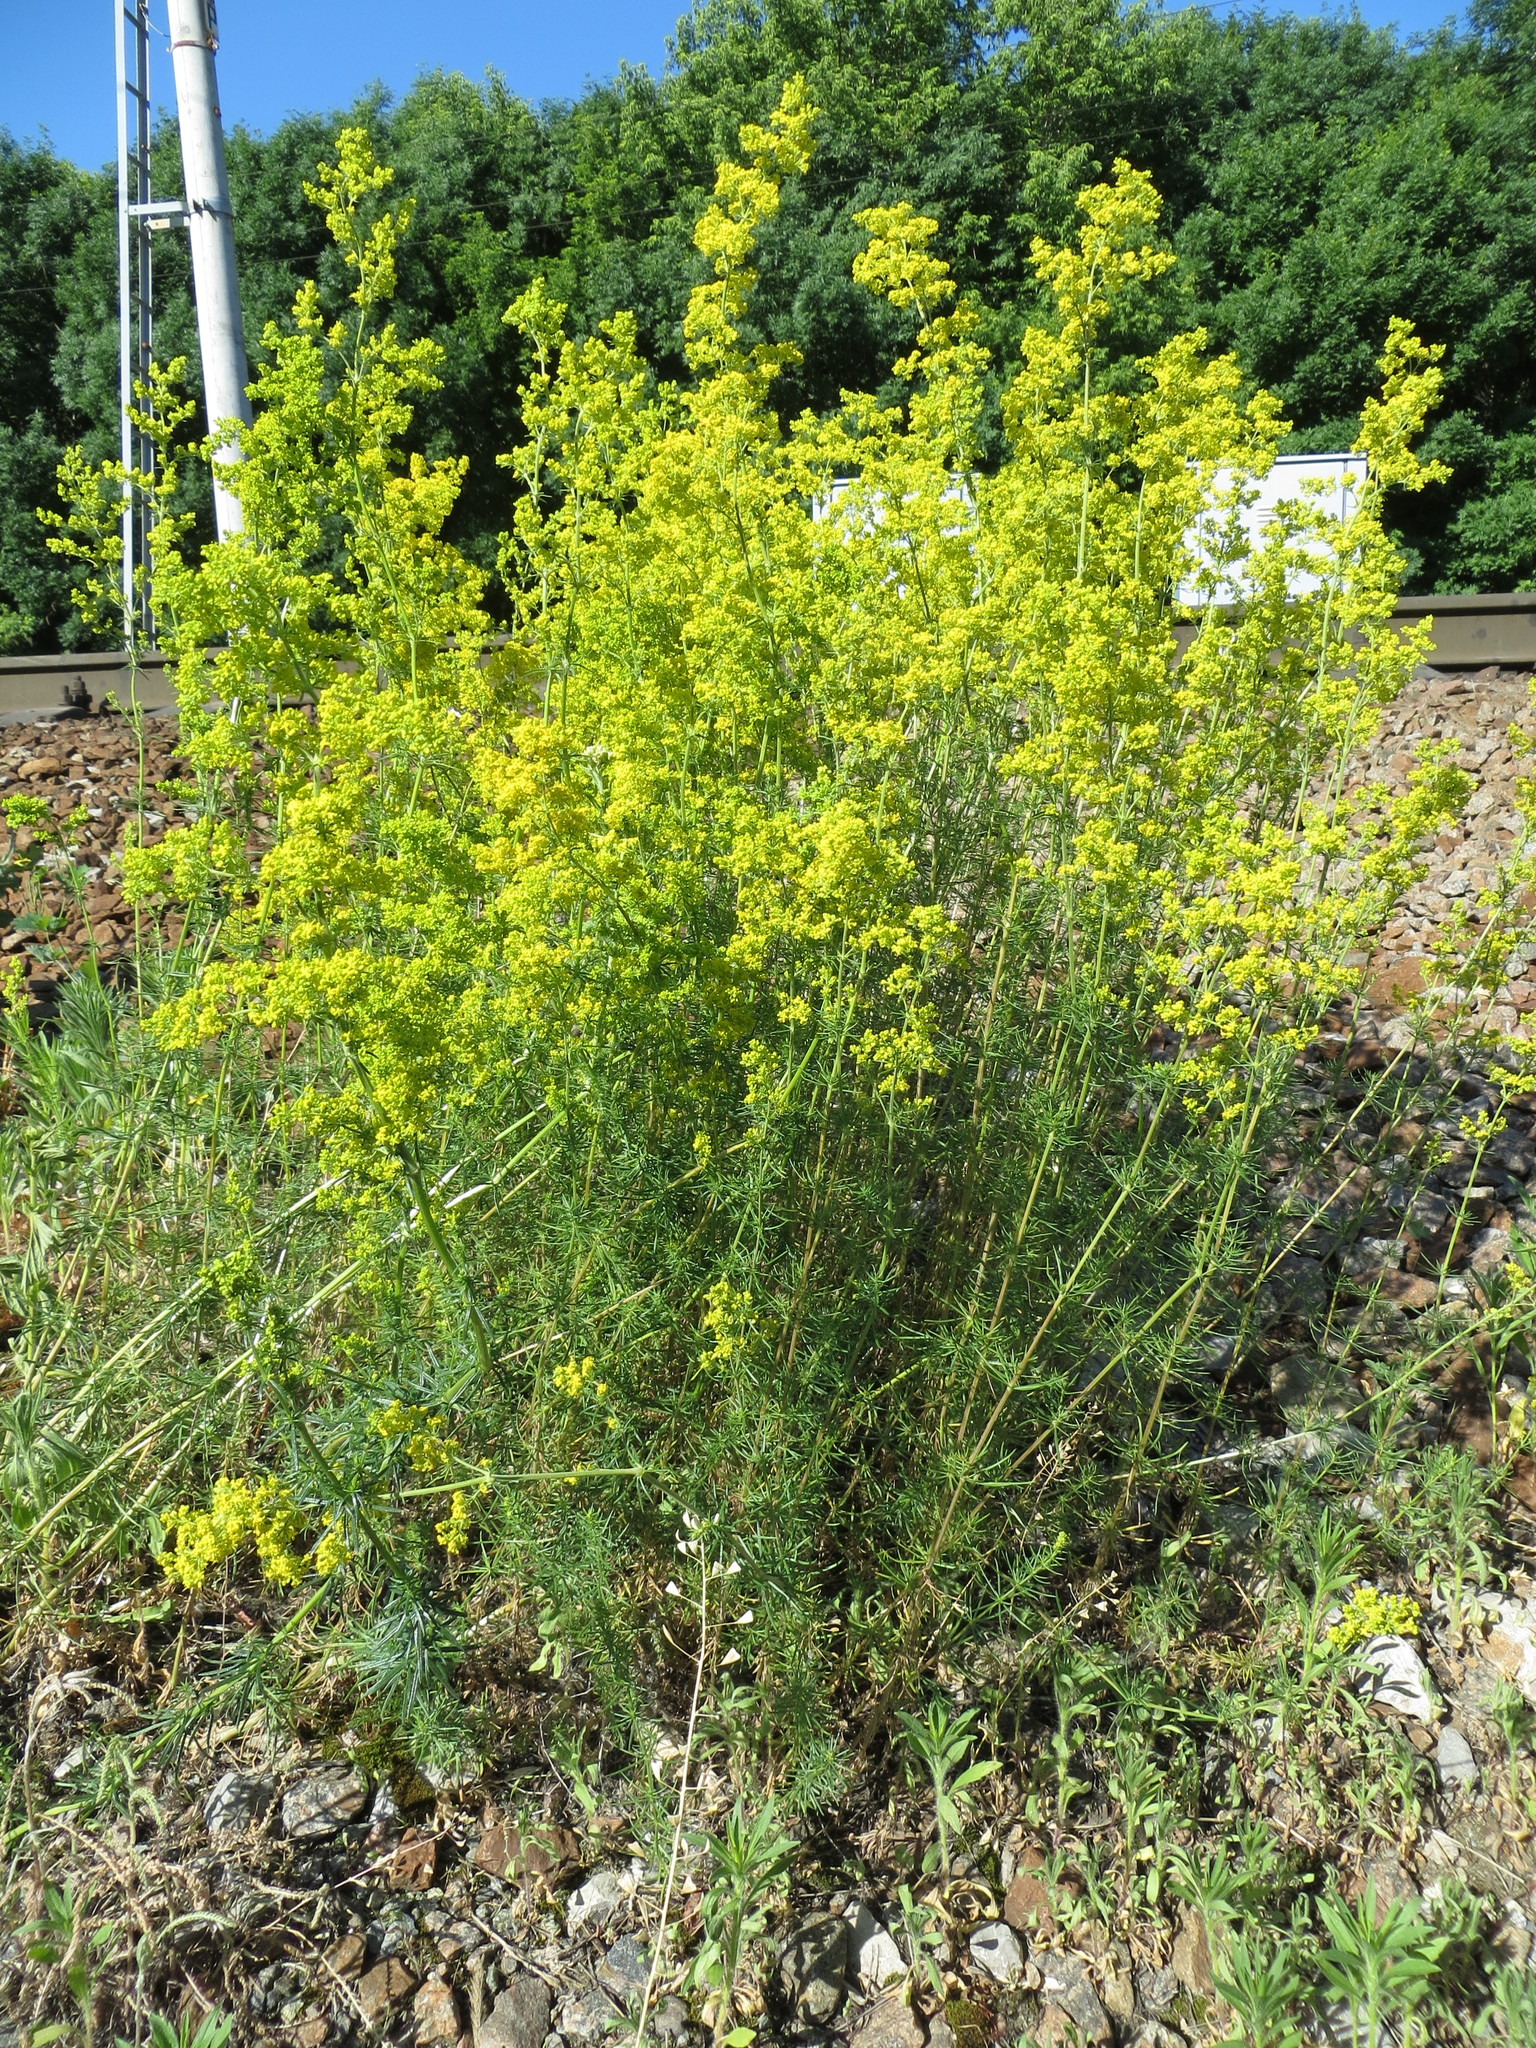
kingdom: Plantae
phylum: Tracheophyta
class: Magnoliopsida
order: Gentianales
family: Rubiaceae
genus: Galium
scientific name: Galium verum
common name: Lady's bedstraw
